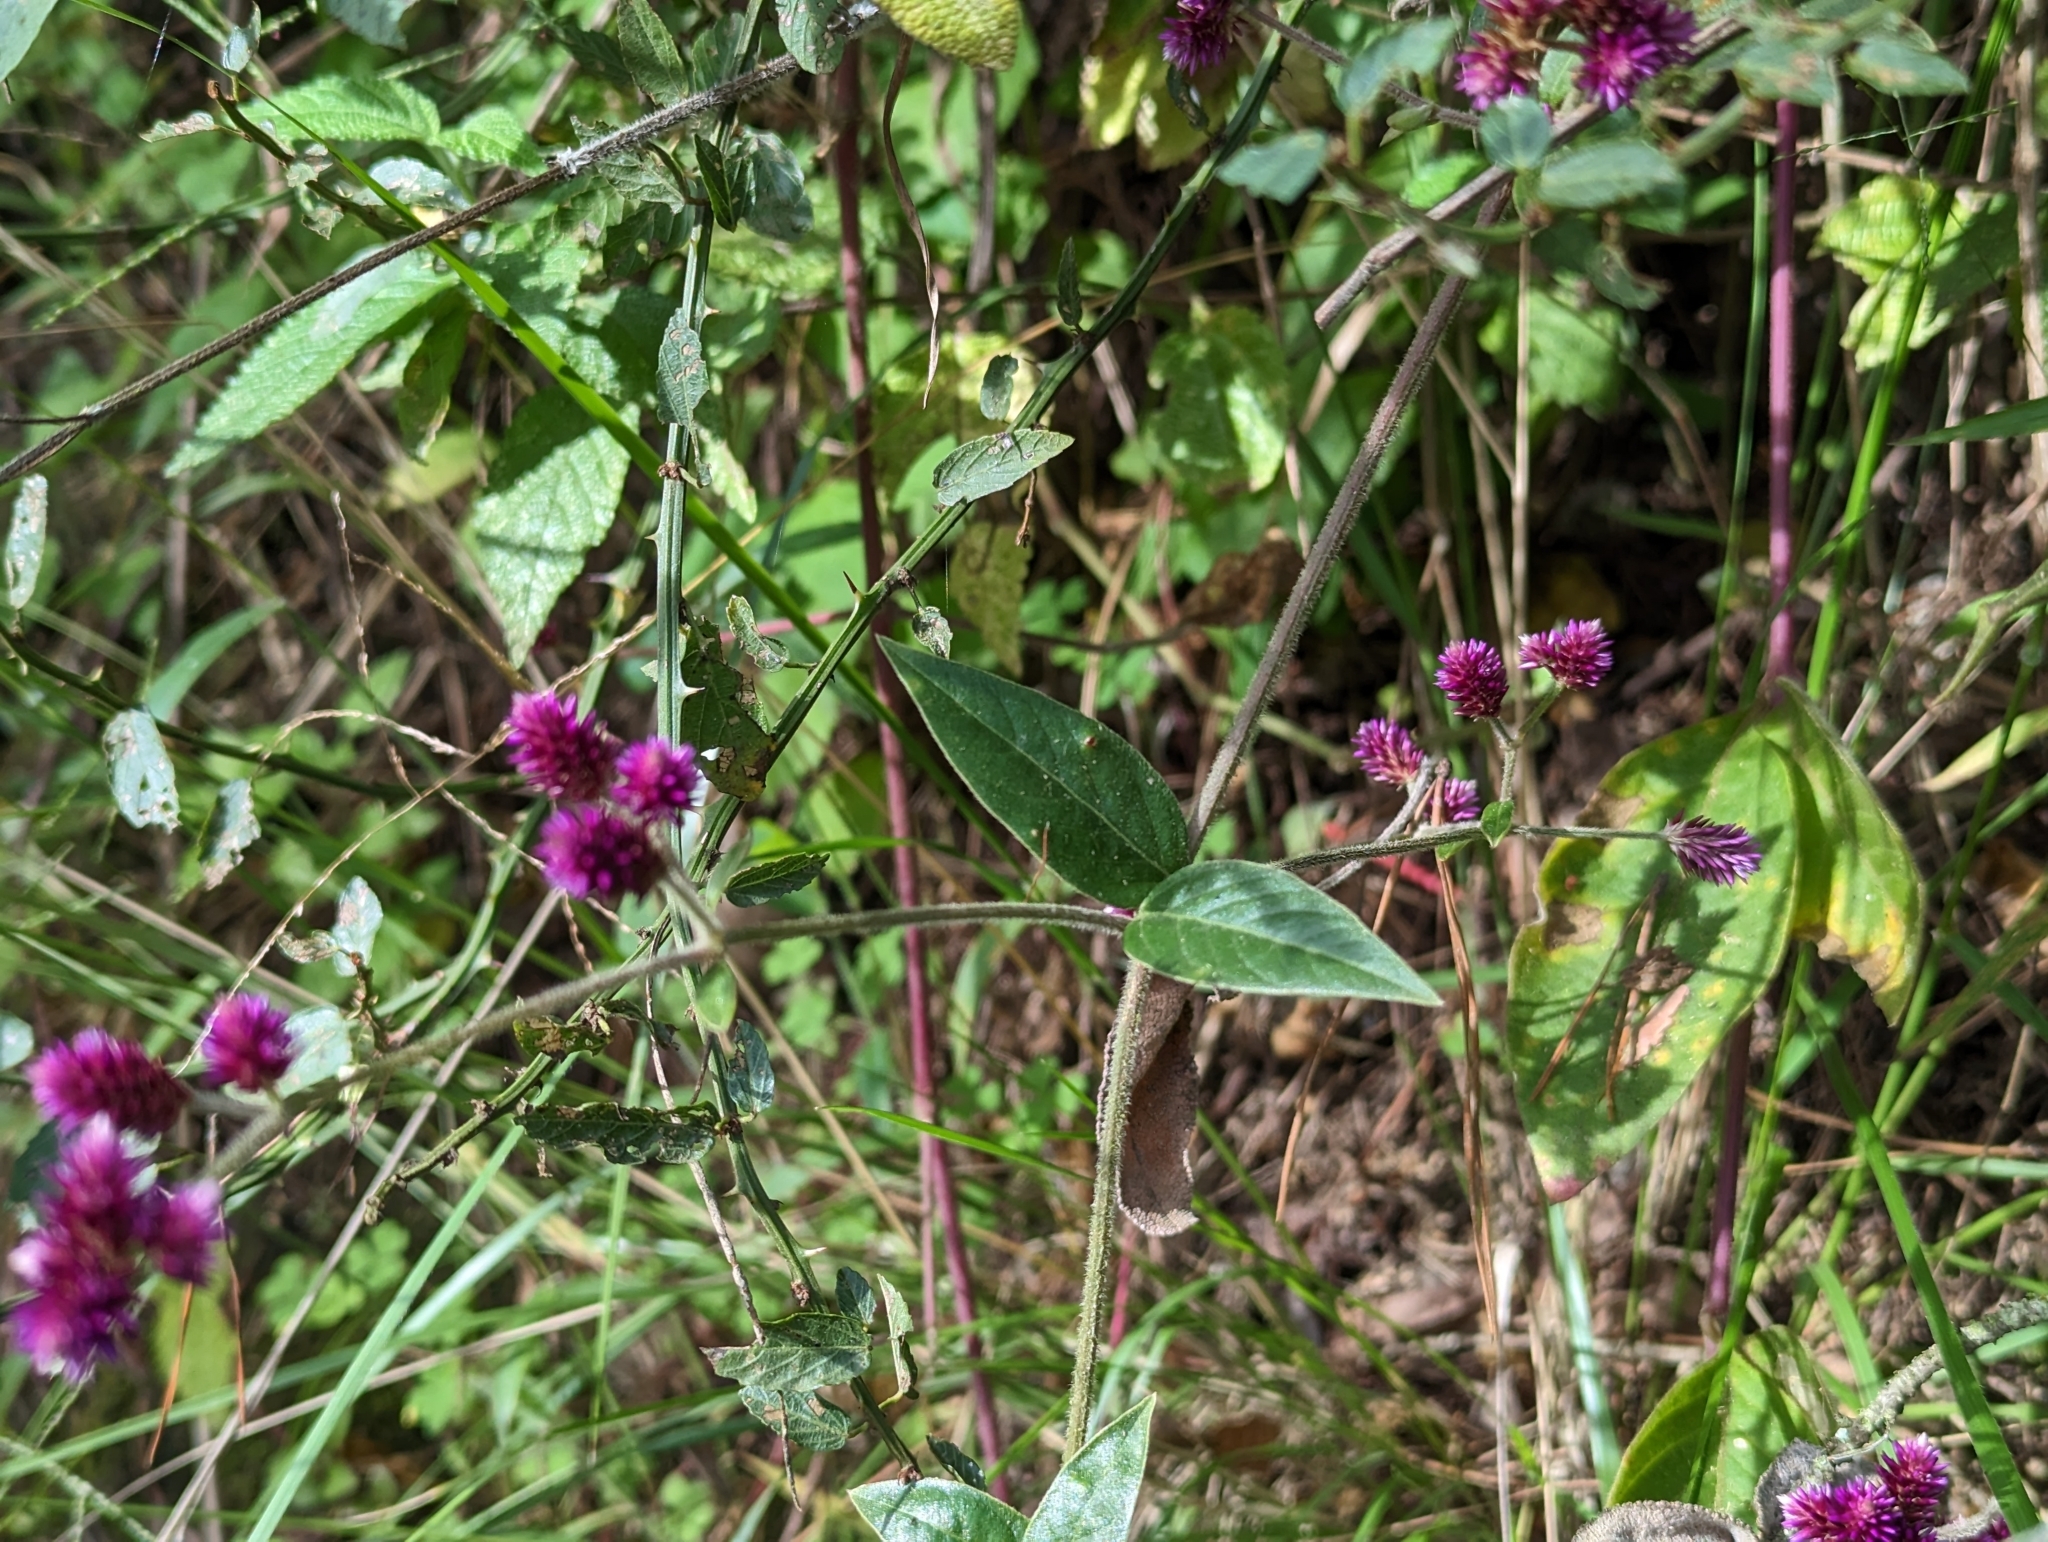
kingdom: Plantae
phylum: Tracheophyta
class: Magnoliopsida
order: Caryophyllales
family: Amaranthaceae
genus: Alternanthera
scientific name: Alternanthera porrigens
